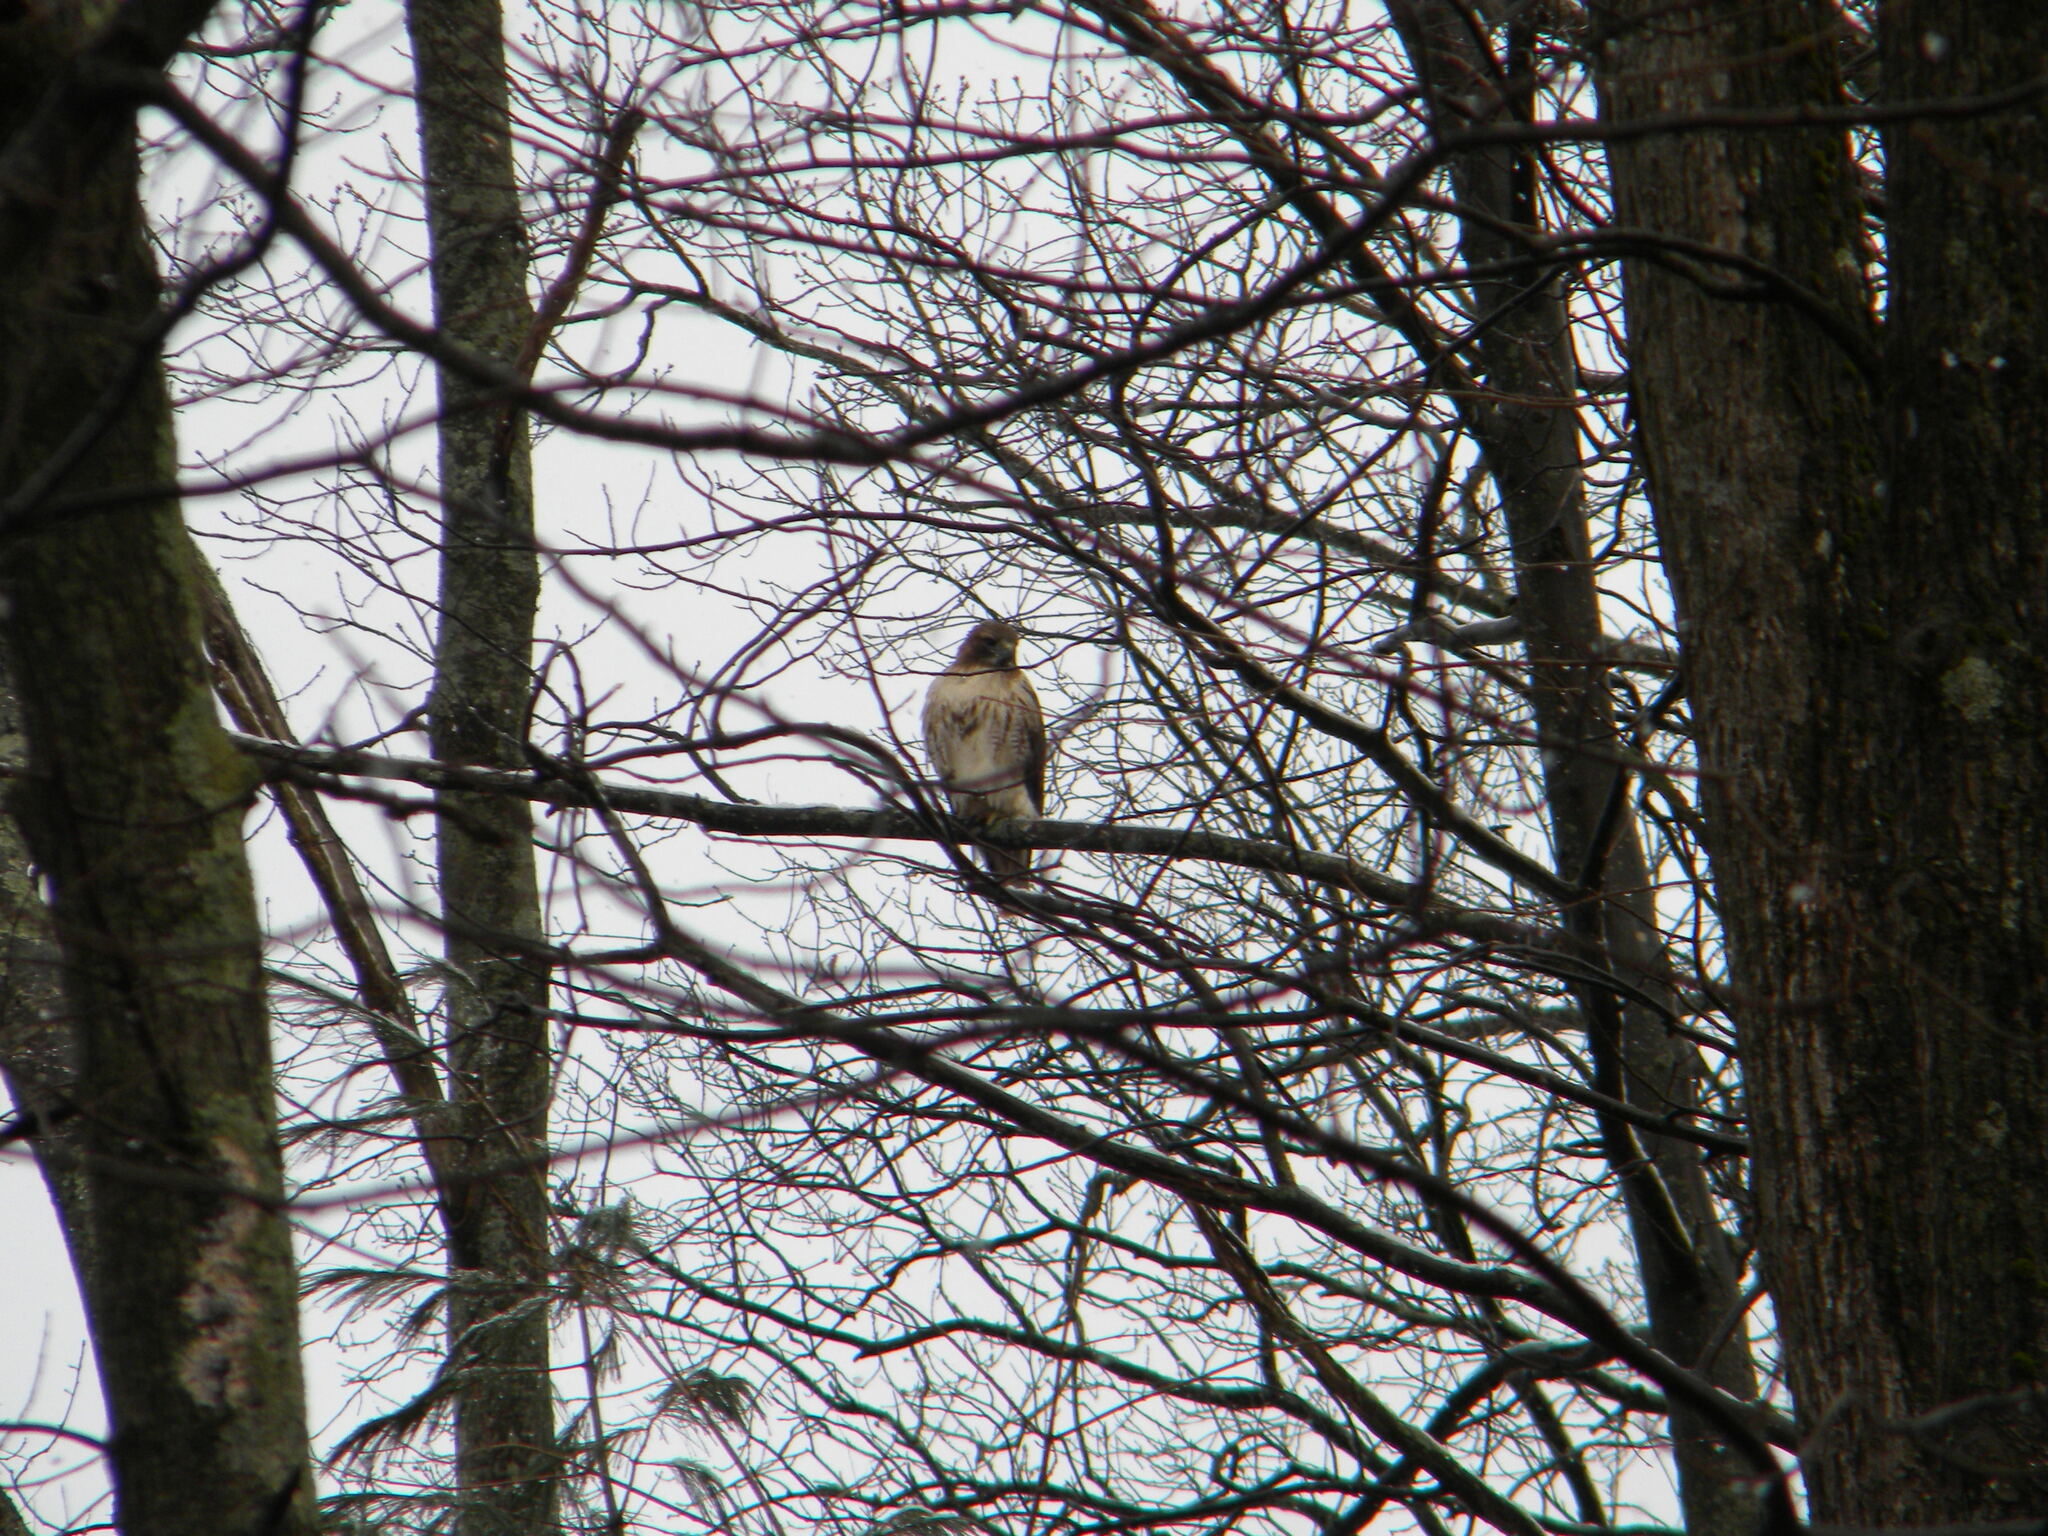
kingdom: Animalia
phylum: Chordata
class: Aves
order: Accipitriformes
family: Accipitridae
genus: Buteo
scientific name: Buteo jamaicensis
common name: Red-tailed hawk
